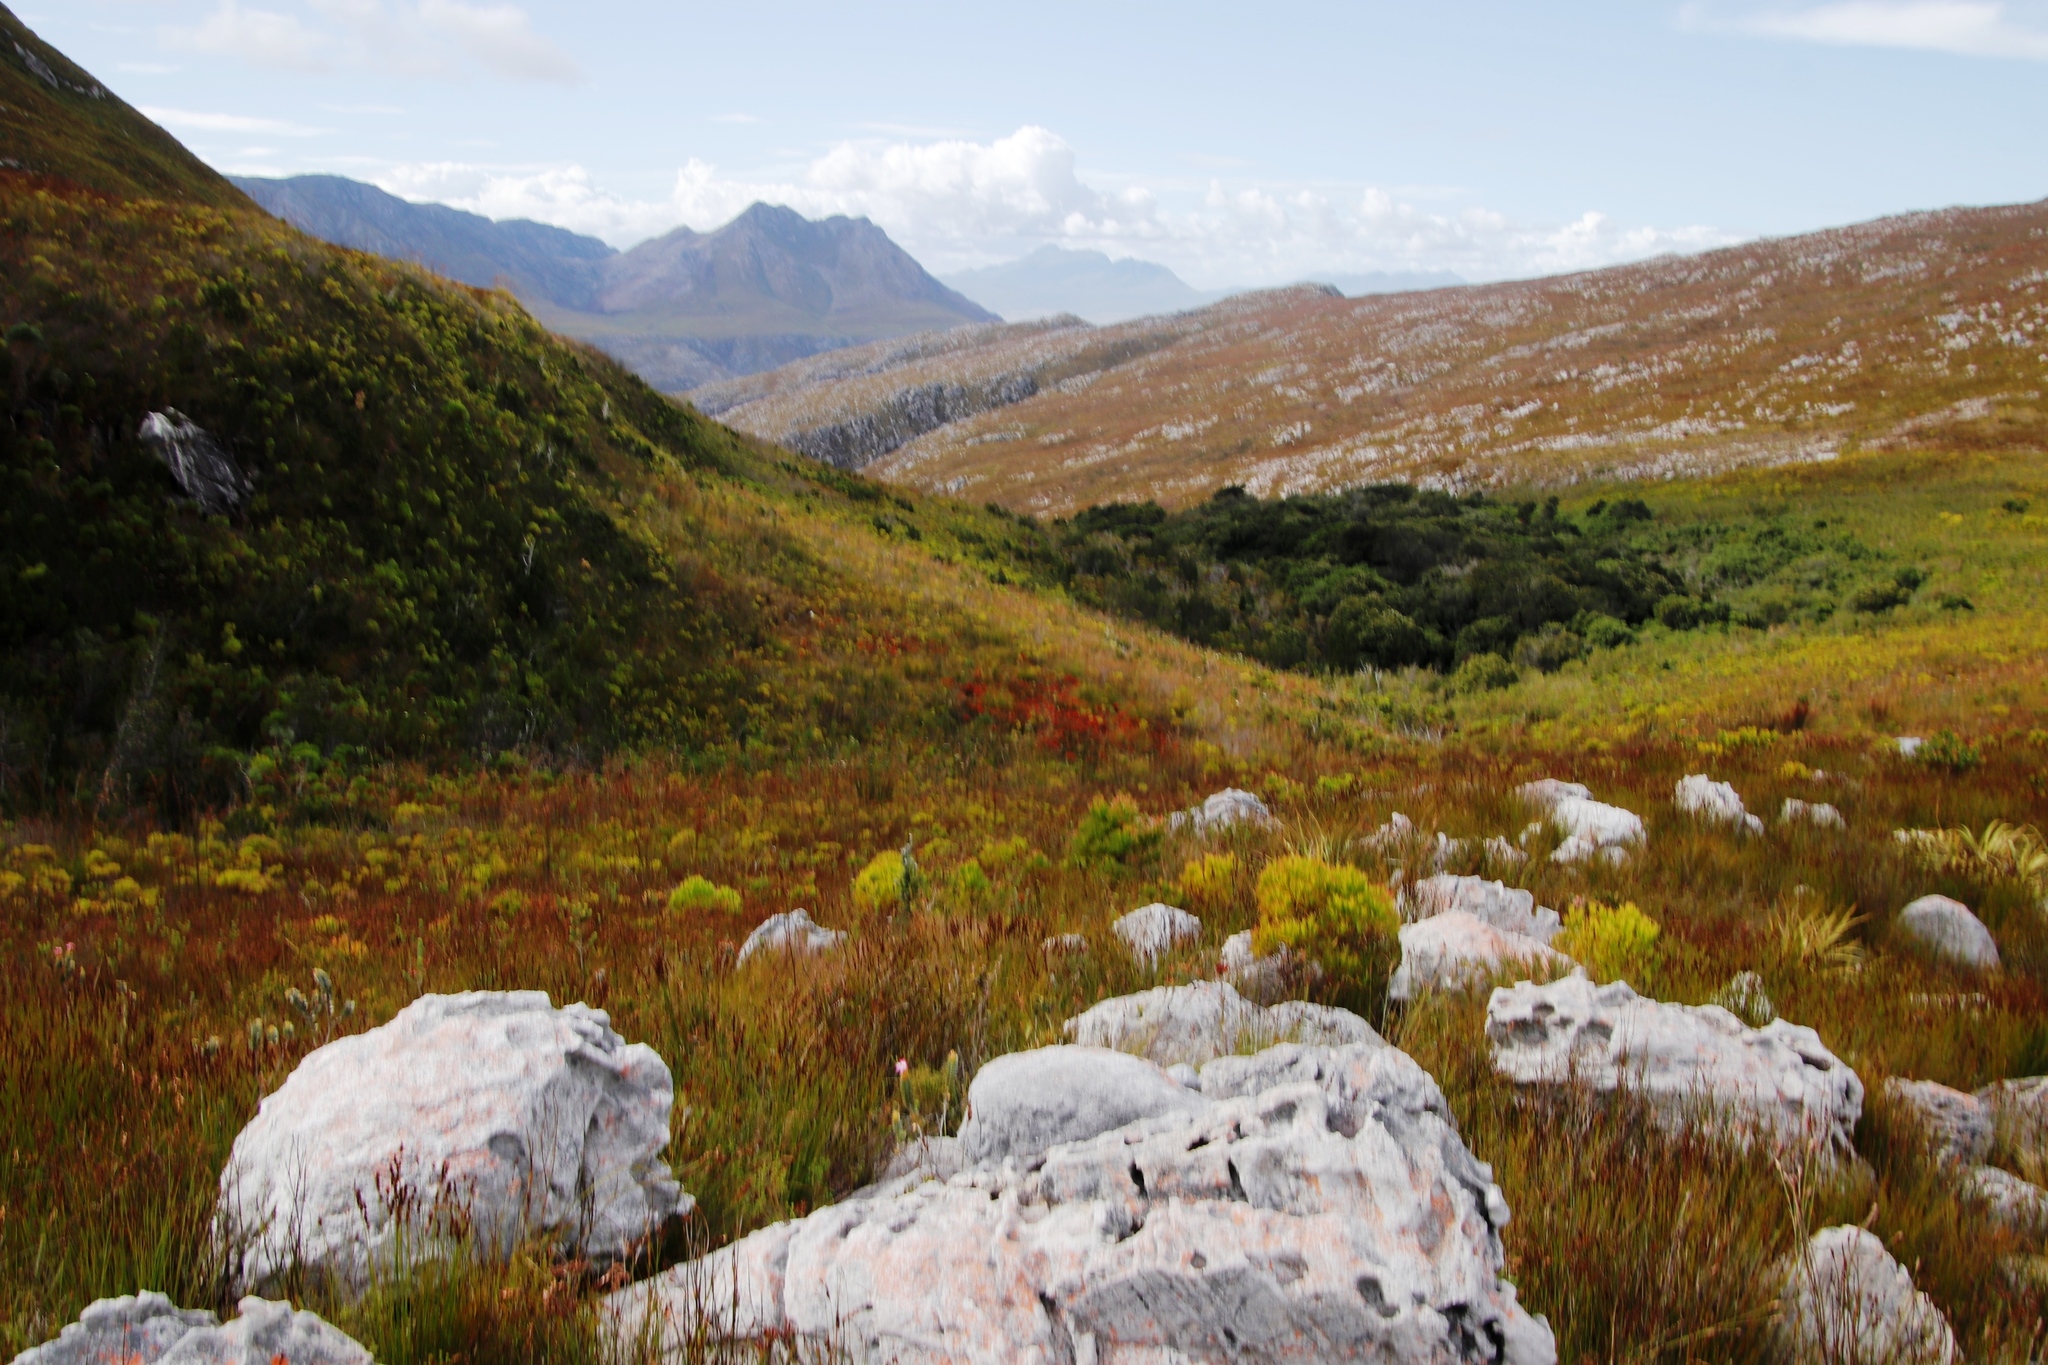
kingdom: Plantae
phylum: Tracheophyta
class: Magnoliopsida
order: Ericales
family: Ericaceae
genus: Erica
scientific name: Erica pillansii
